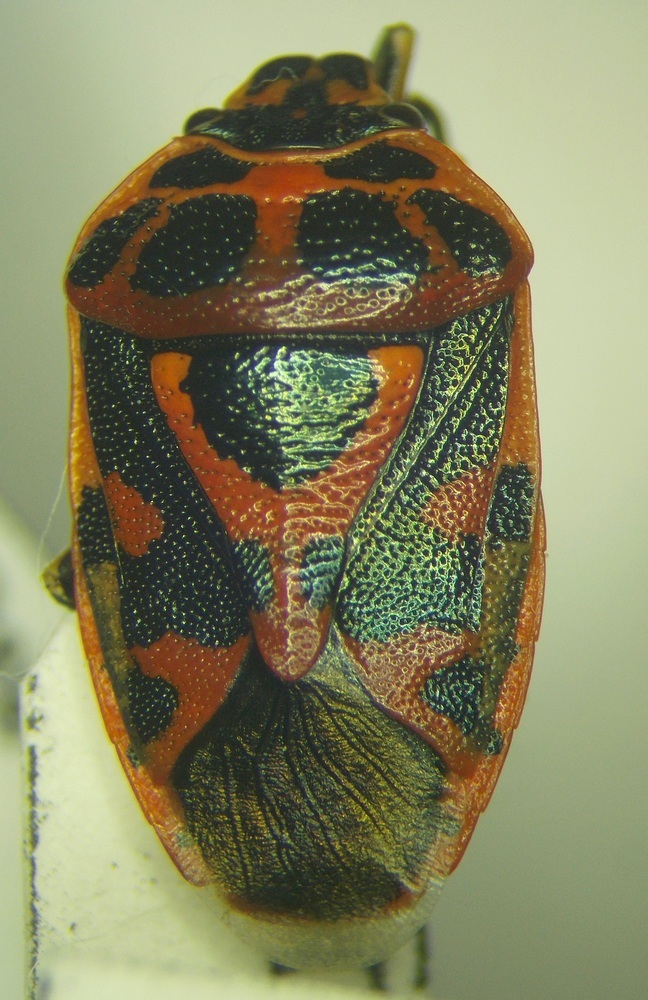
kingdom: Animalia
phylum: Arthropoda
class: Insecta
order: Hemiptera
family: Pentatomidae
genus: Eurydema
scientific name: Eurydema ornata
